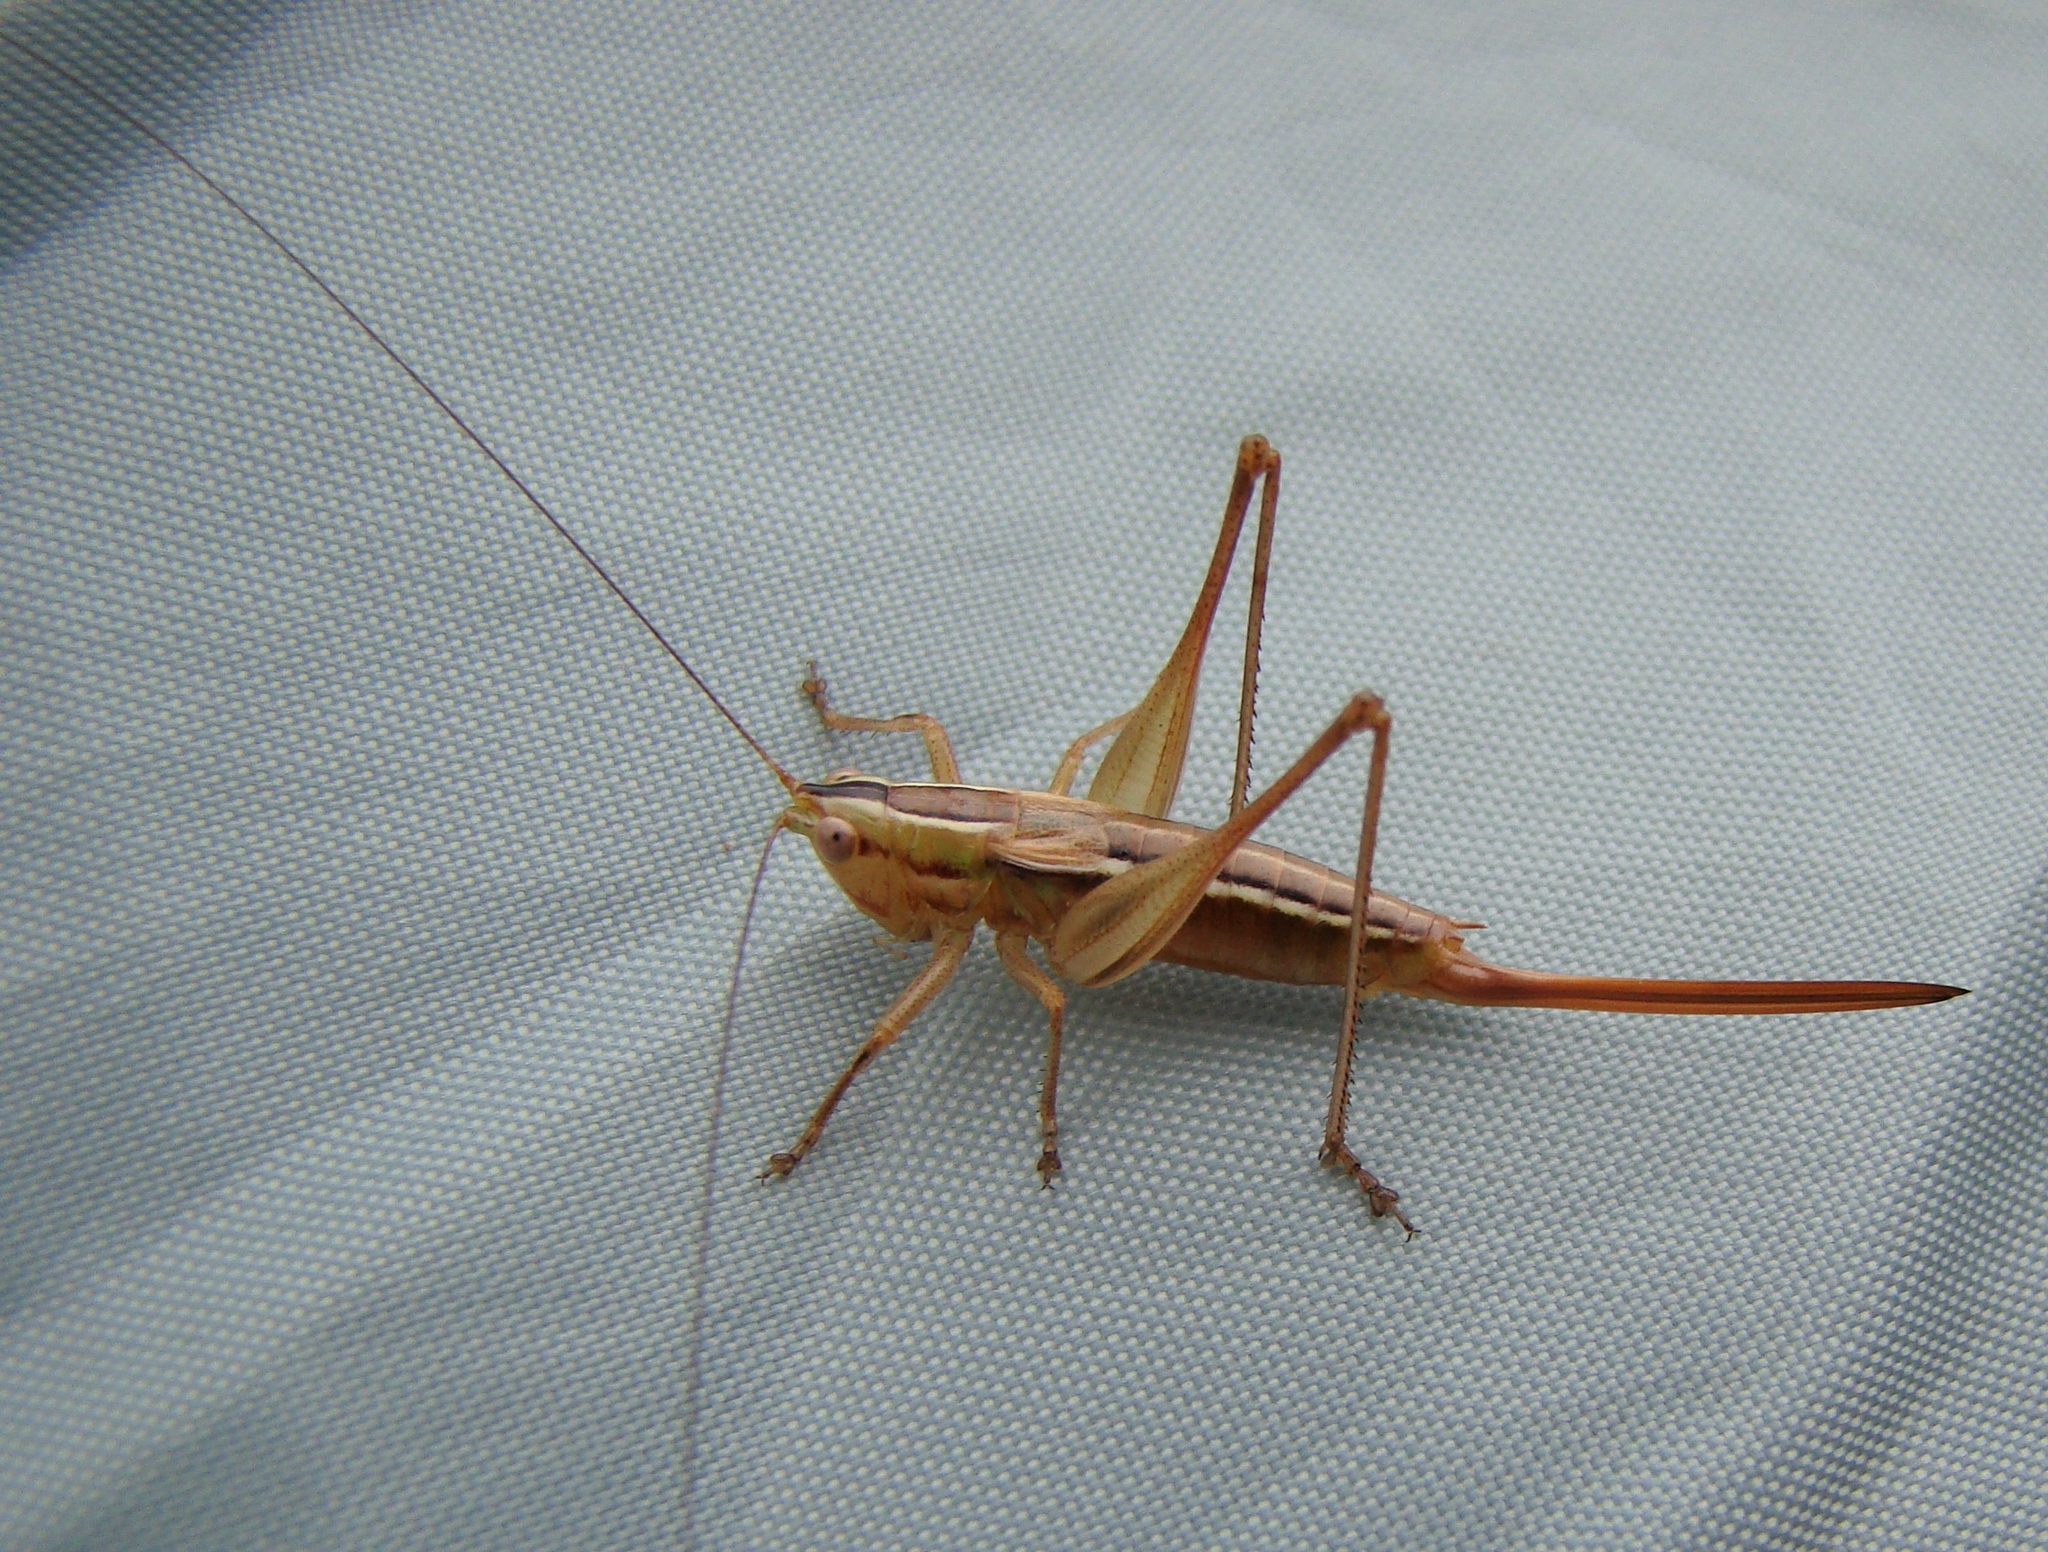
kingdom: Animalia
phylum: Arthropoda
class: Insecta
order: Orthoptera
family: Tettigoniidae
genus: Conocephalus
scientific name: Conocephalus bilineatus
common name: Small meadow katydid
